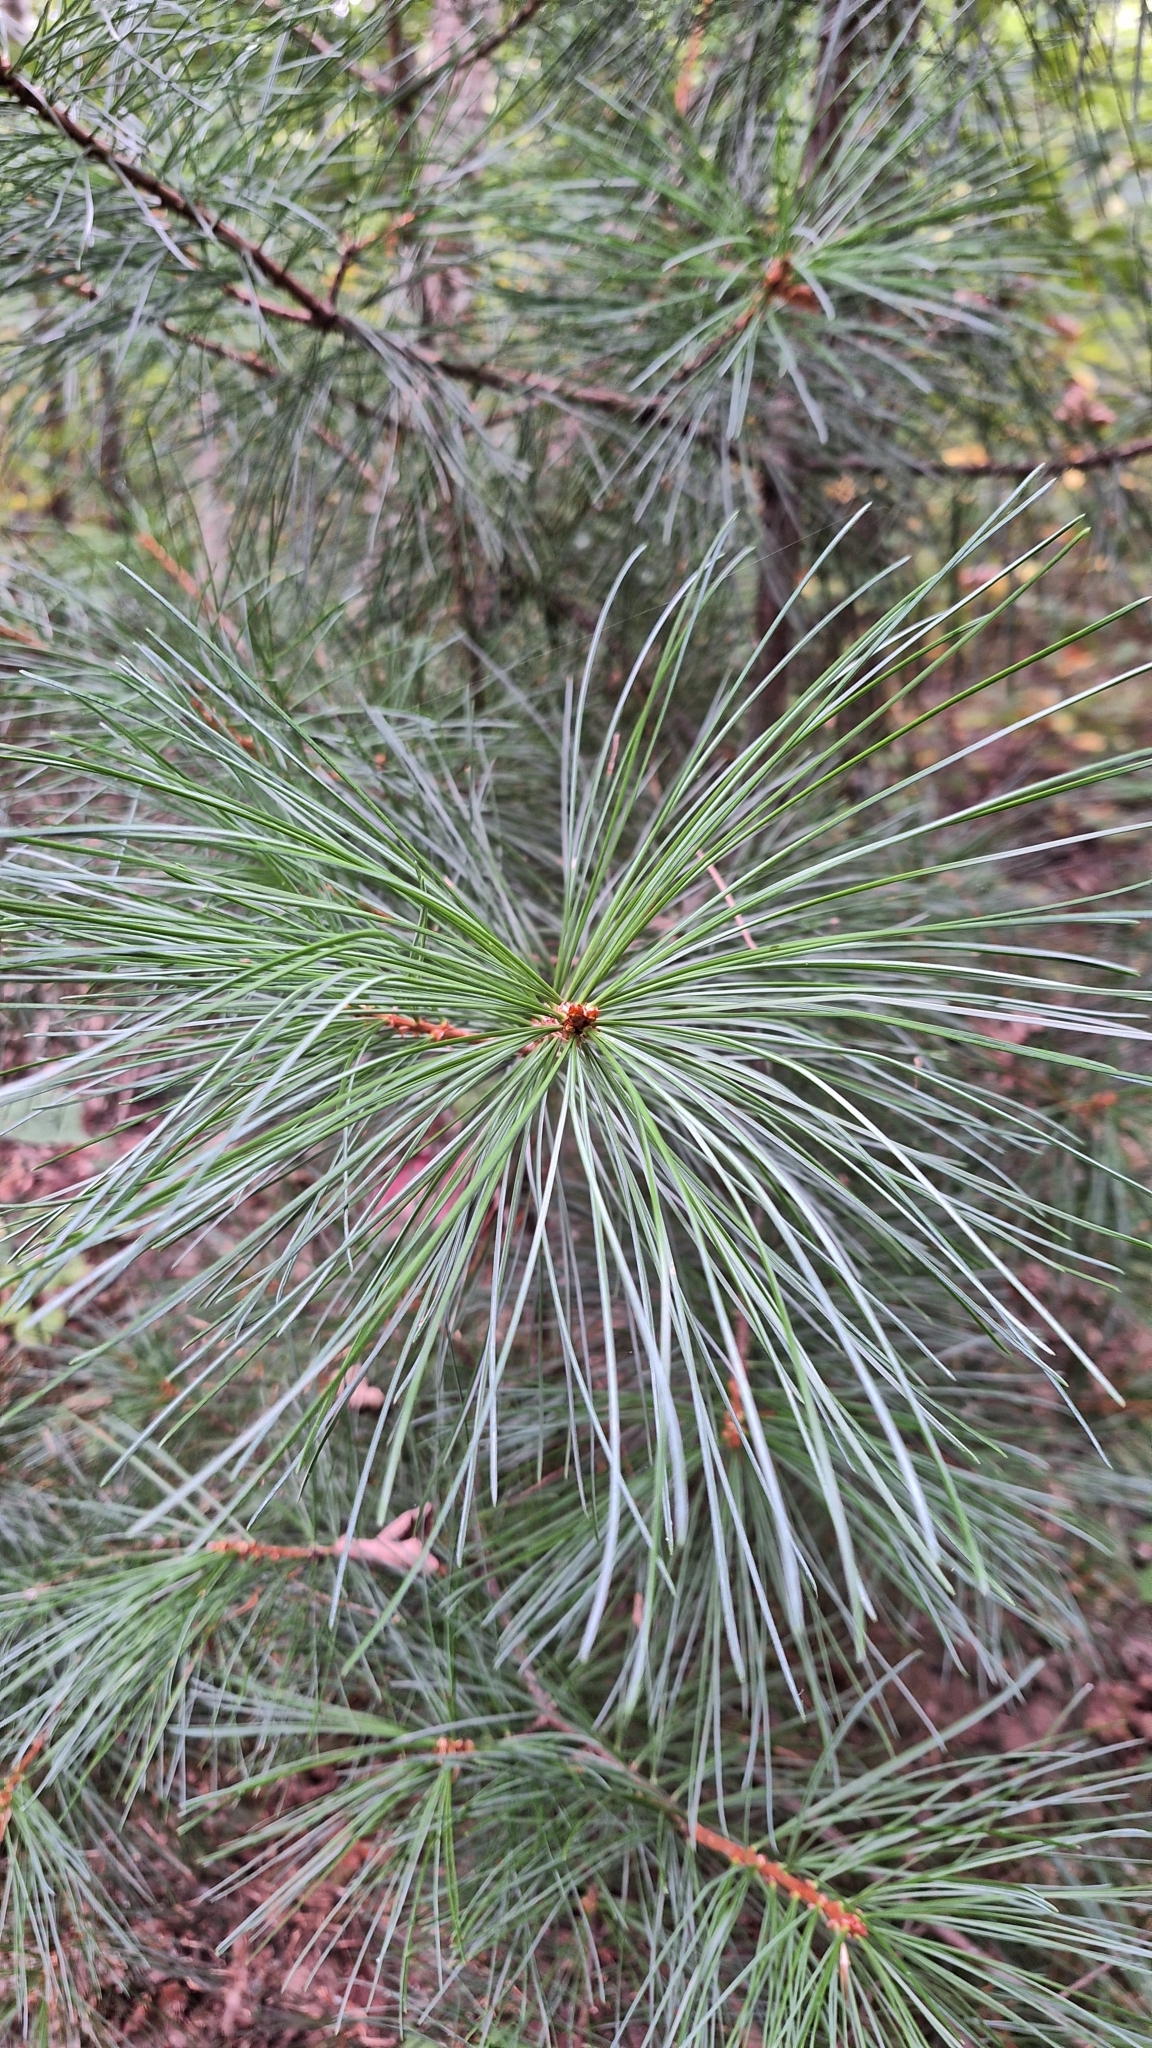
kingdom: Plantae
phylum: Tracheophyta
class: Pinopsida
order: Pinales
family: Pinaceae
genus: Pinus
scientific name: Pinus koraiensis
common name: Korean pine
